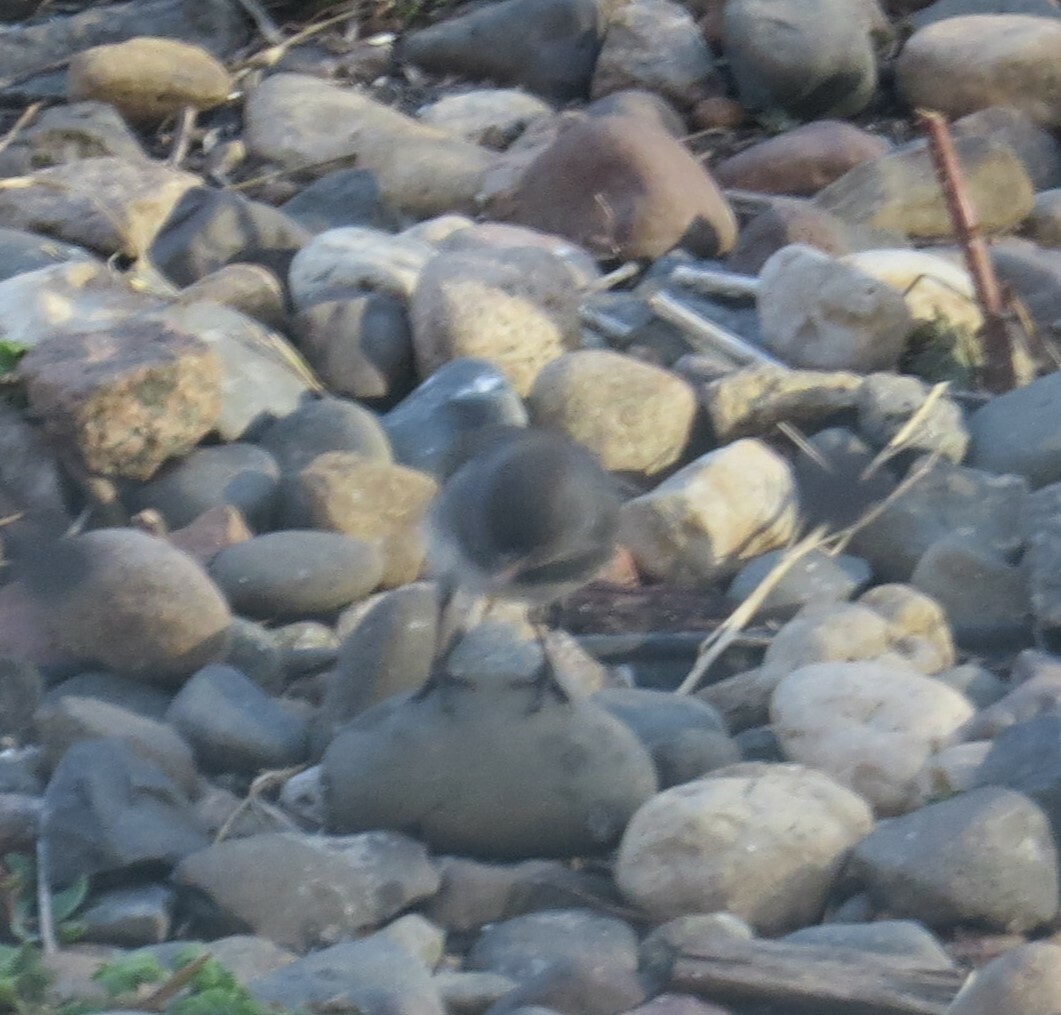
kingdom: Animalia
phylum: Chordata
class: Aves
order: Passeriformes
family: Passerellidae
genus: Junco
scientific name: Junco hyemalis
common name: Dark-eyed junco
